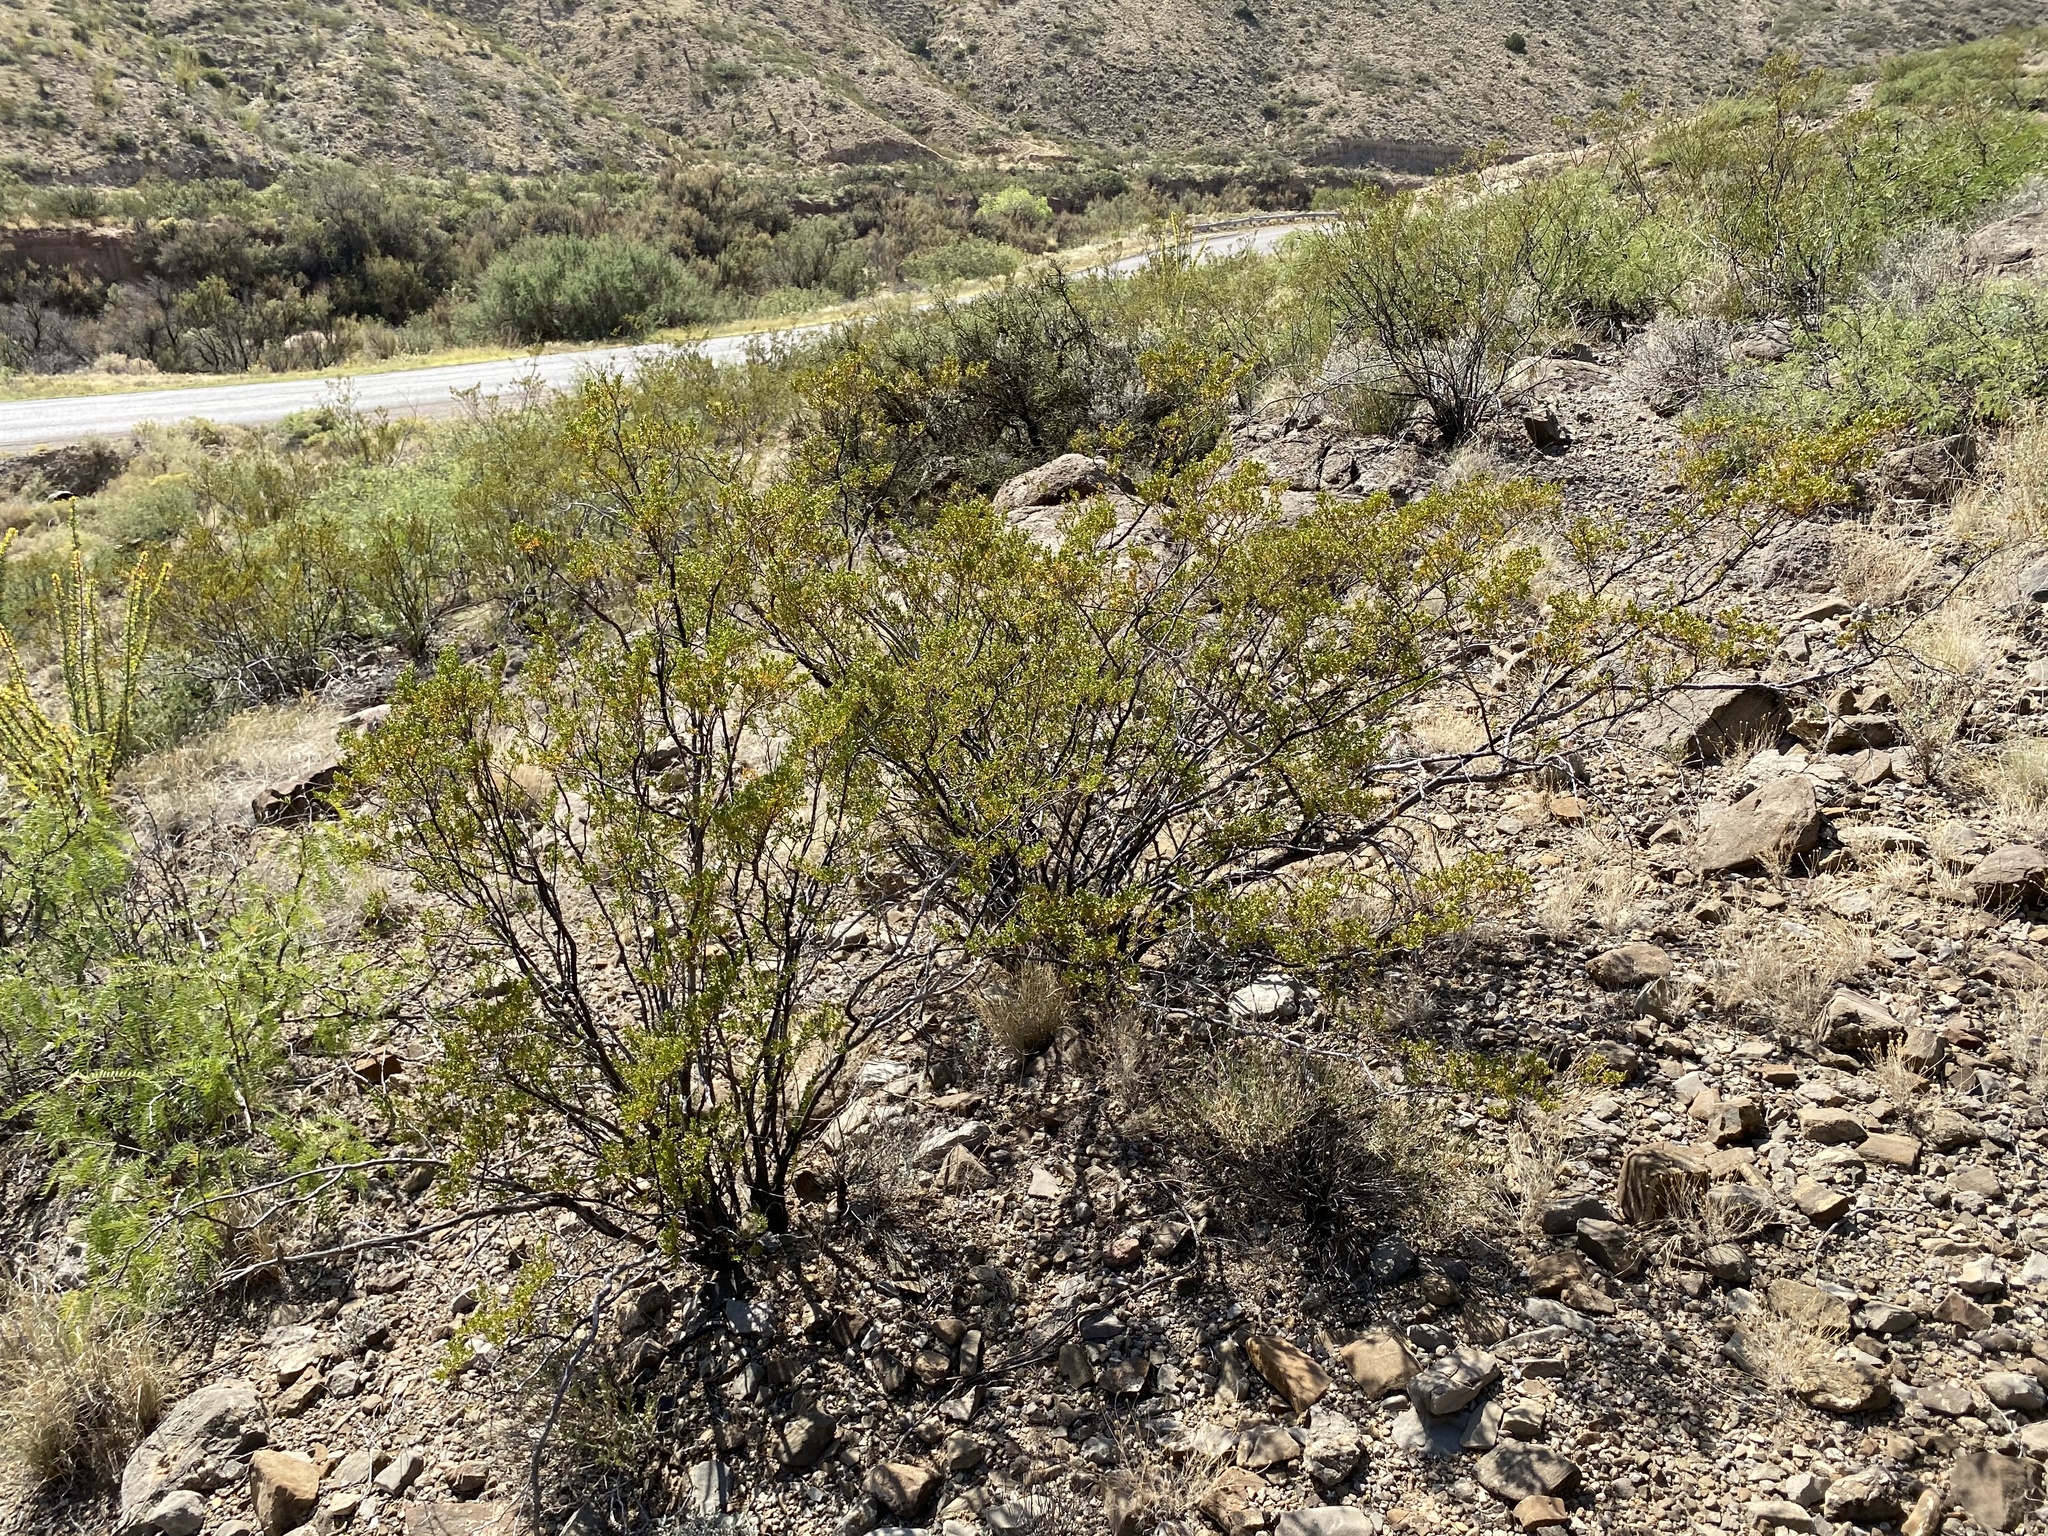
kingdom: Plantae
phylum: Tracheophyta
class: Magnoliopsida
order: Zygophyllales
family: Zygophyllaceae
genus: Larrea
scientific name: Larrea tridentata
